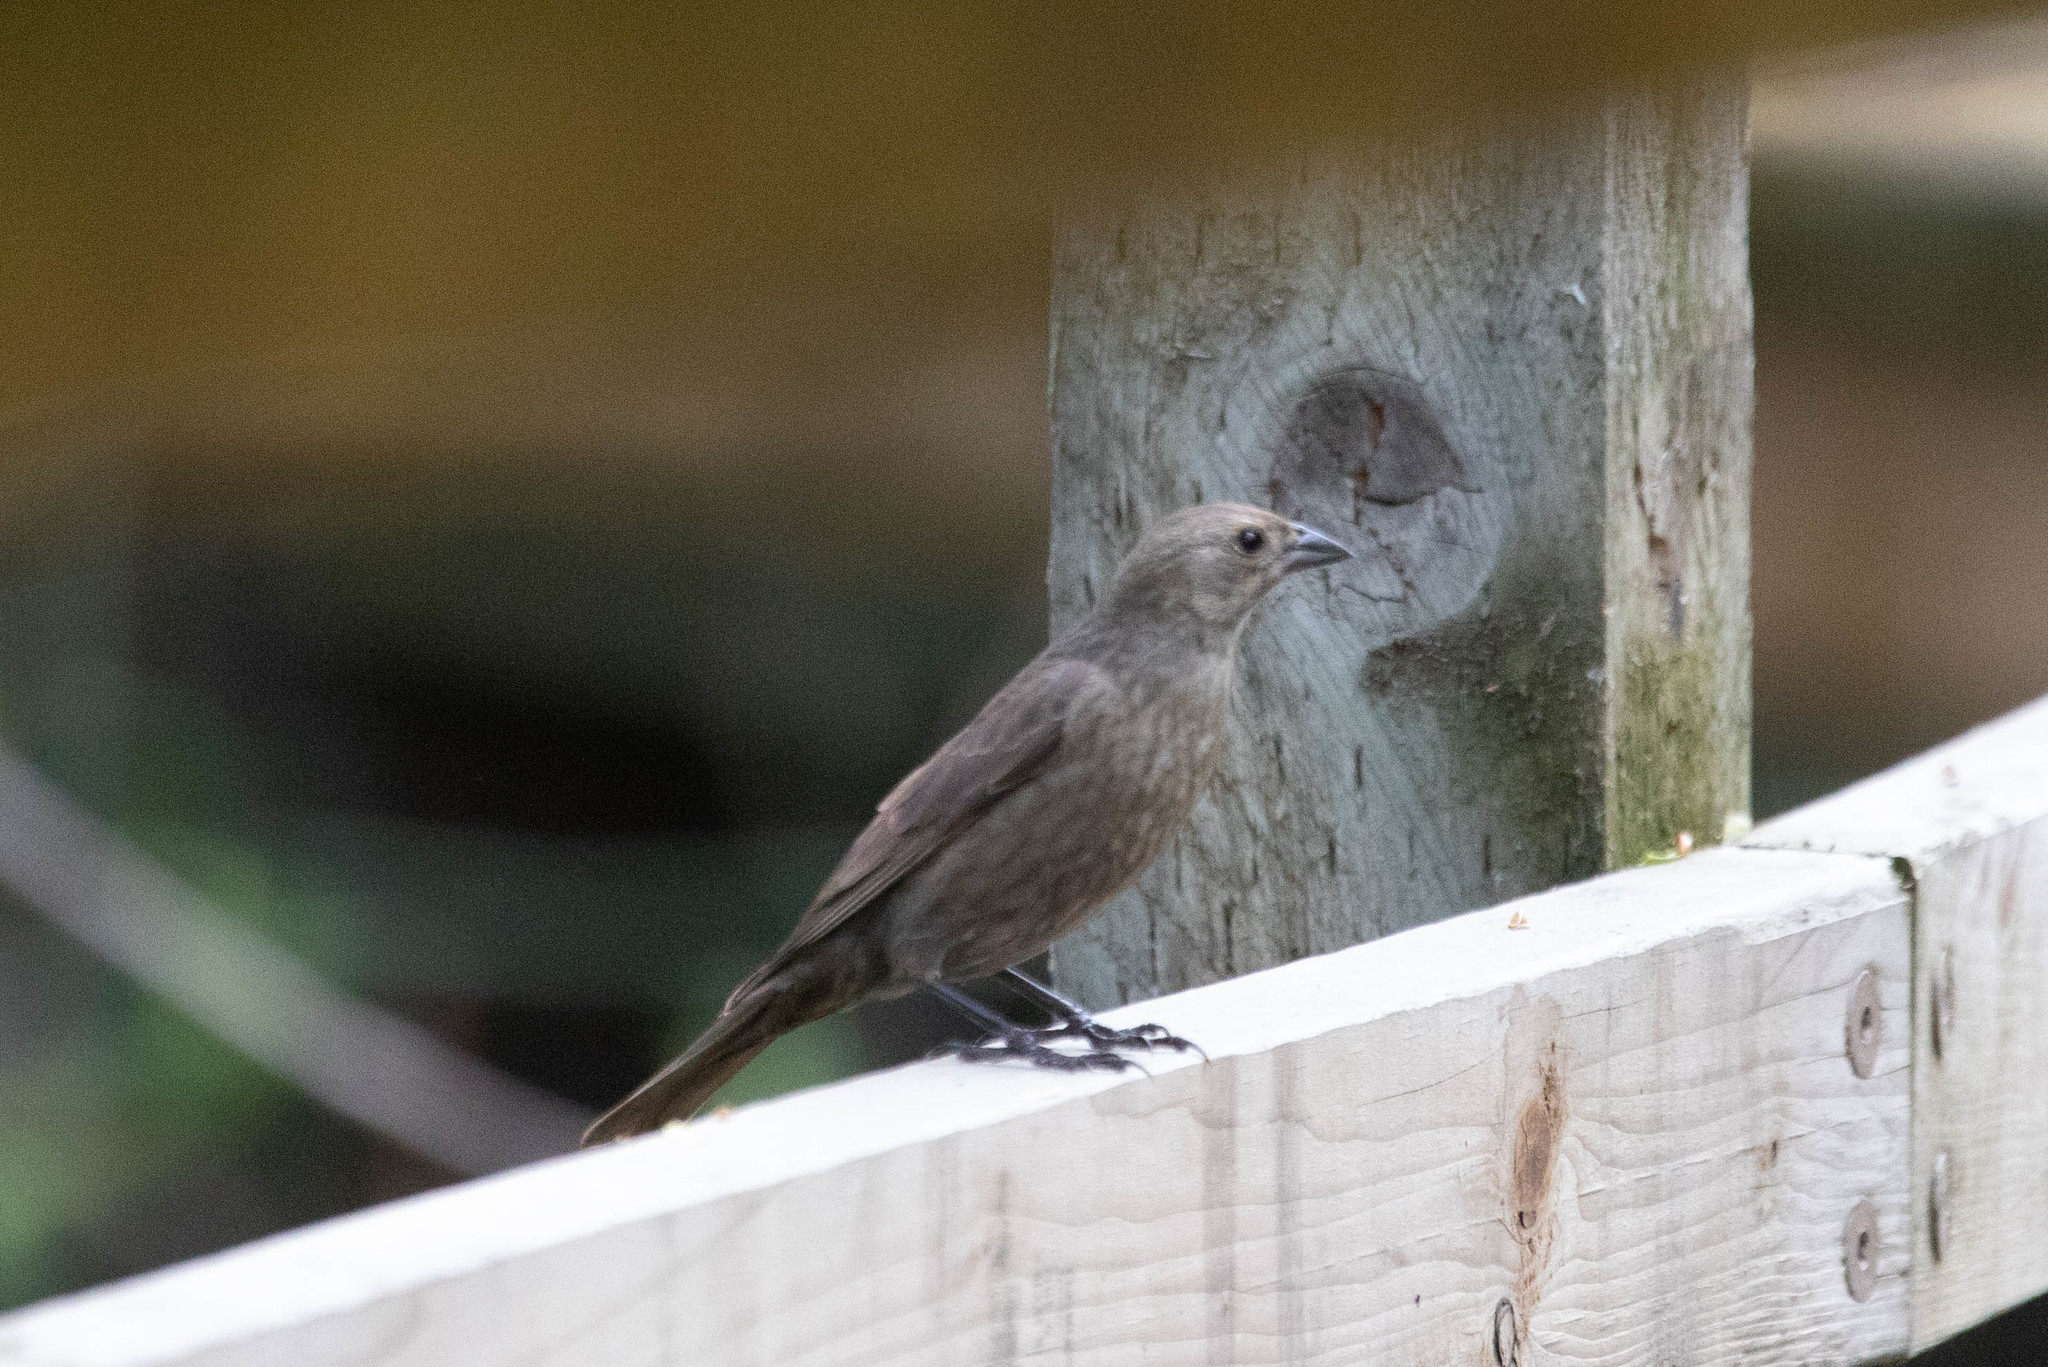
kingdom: Animalia
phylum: Chordata
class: Aves
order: Passeriformes
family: Icteridae
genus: Molothrus
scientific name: Molothrus ater
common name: Brown-headed cowbird
